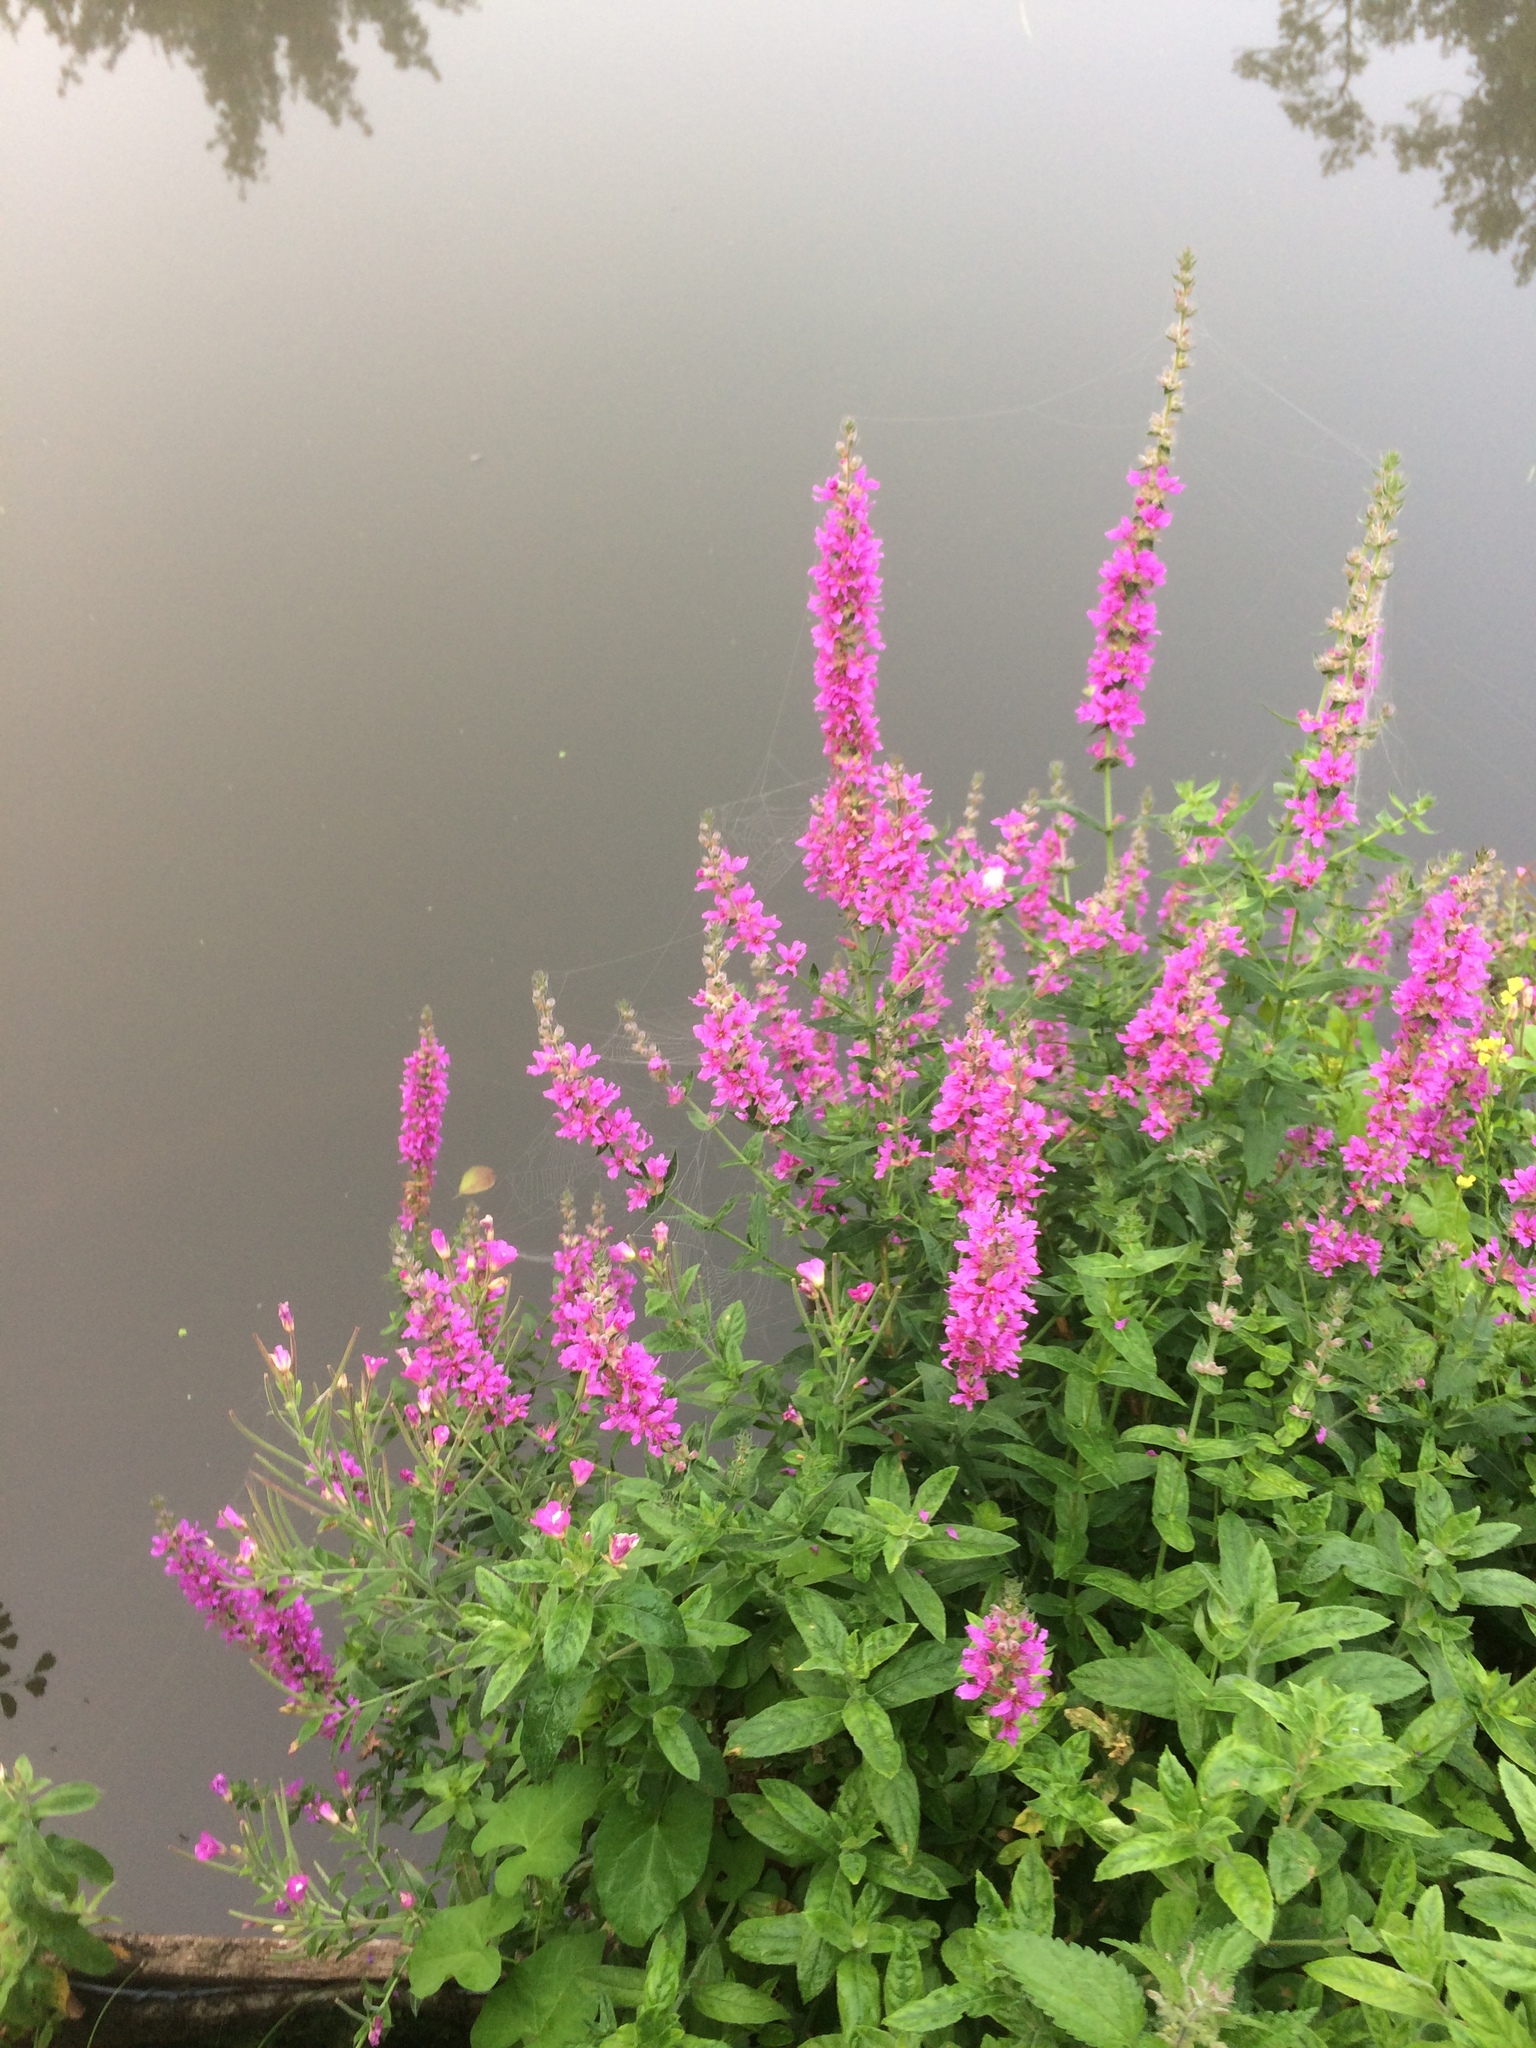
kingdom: Plantae
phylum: Tracheophyta
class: Magnoliopsida
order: Myrtales
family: Lythraceae
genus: Lythrum
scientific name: Lythrum salicaria
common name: Purple loosestrife
